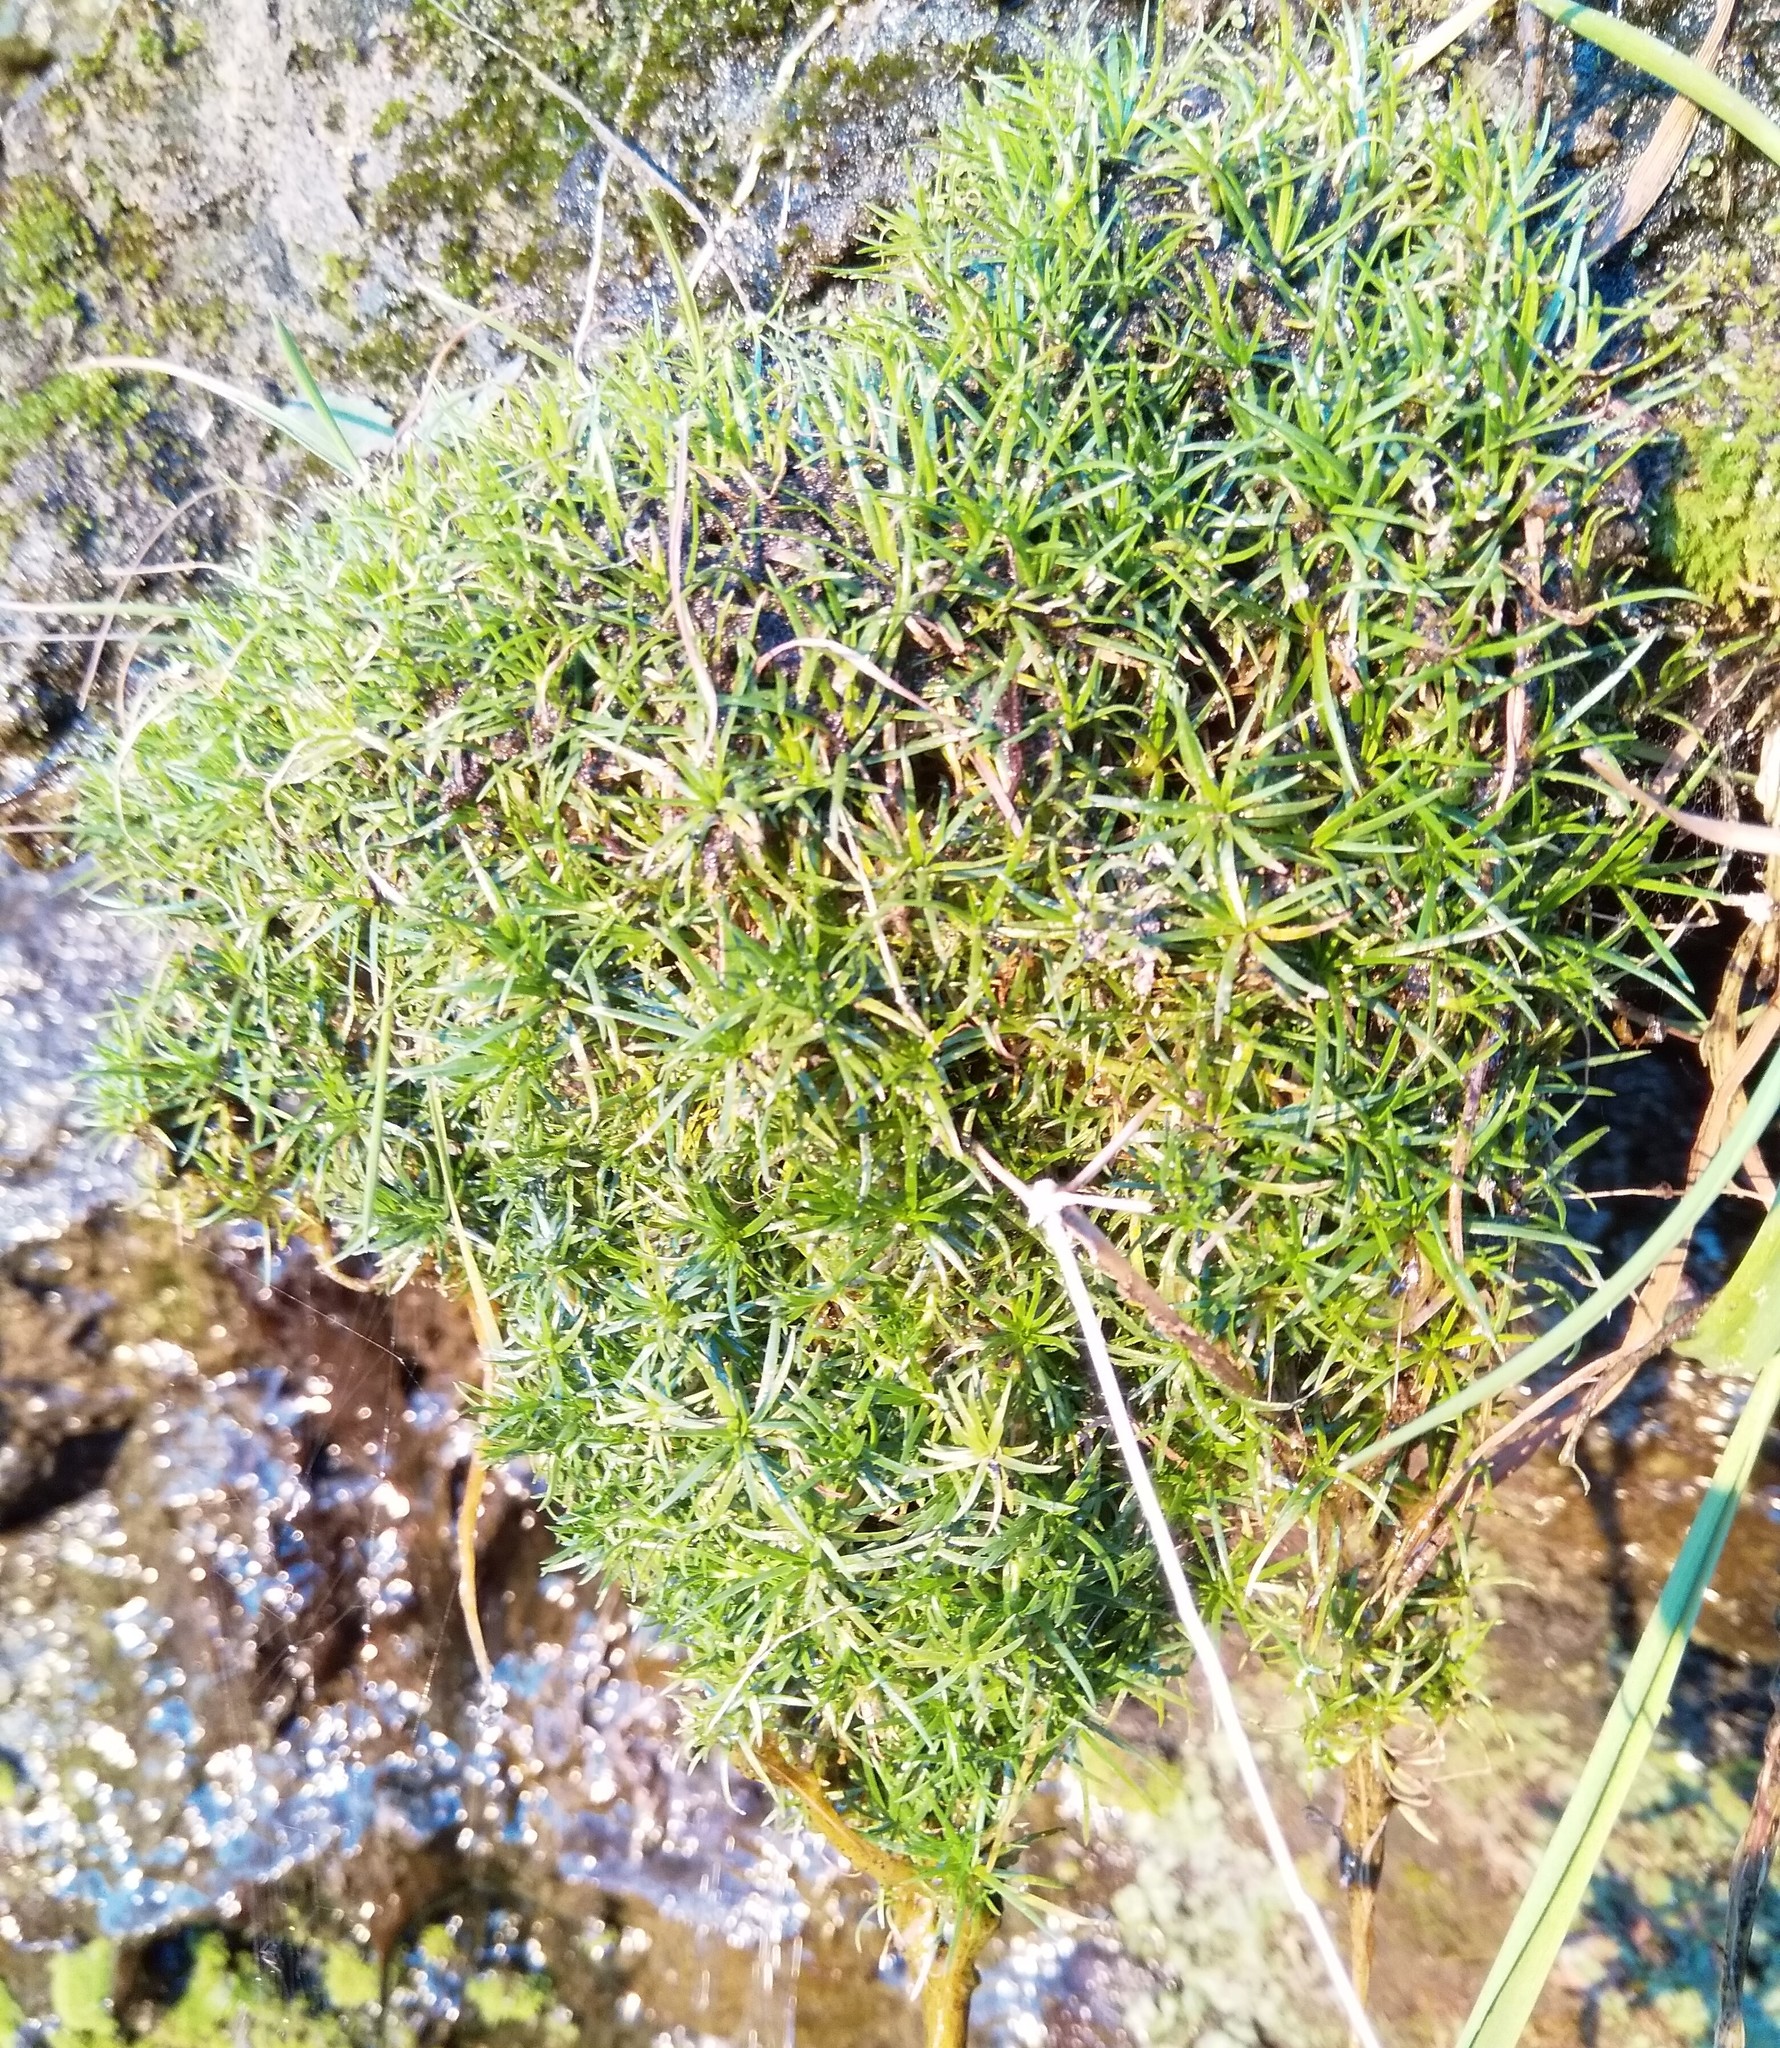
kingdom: Plantae
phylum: Tracheophyta
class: Magnoliopsida
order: Caryophyllales
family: Caryophyllaceae
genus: Sagina
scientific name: Sagina procumbens
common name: Procumbent pearlwort
